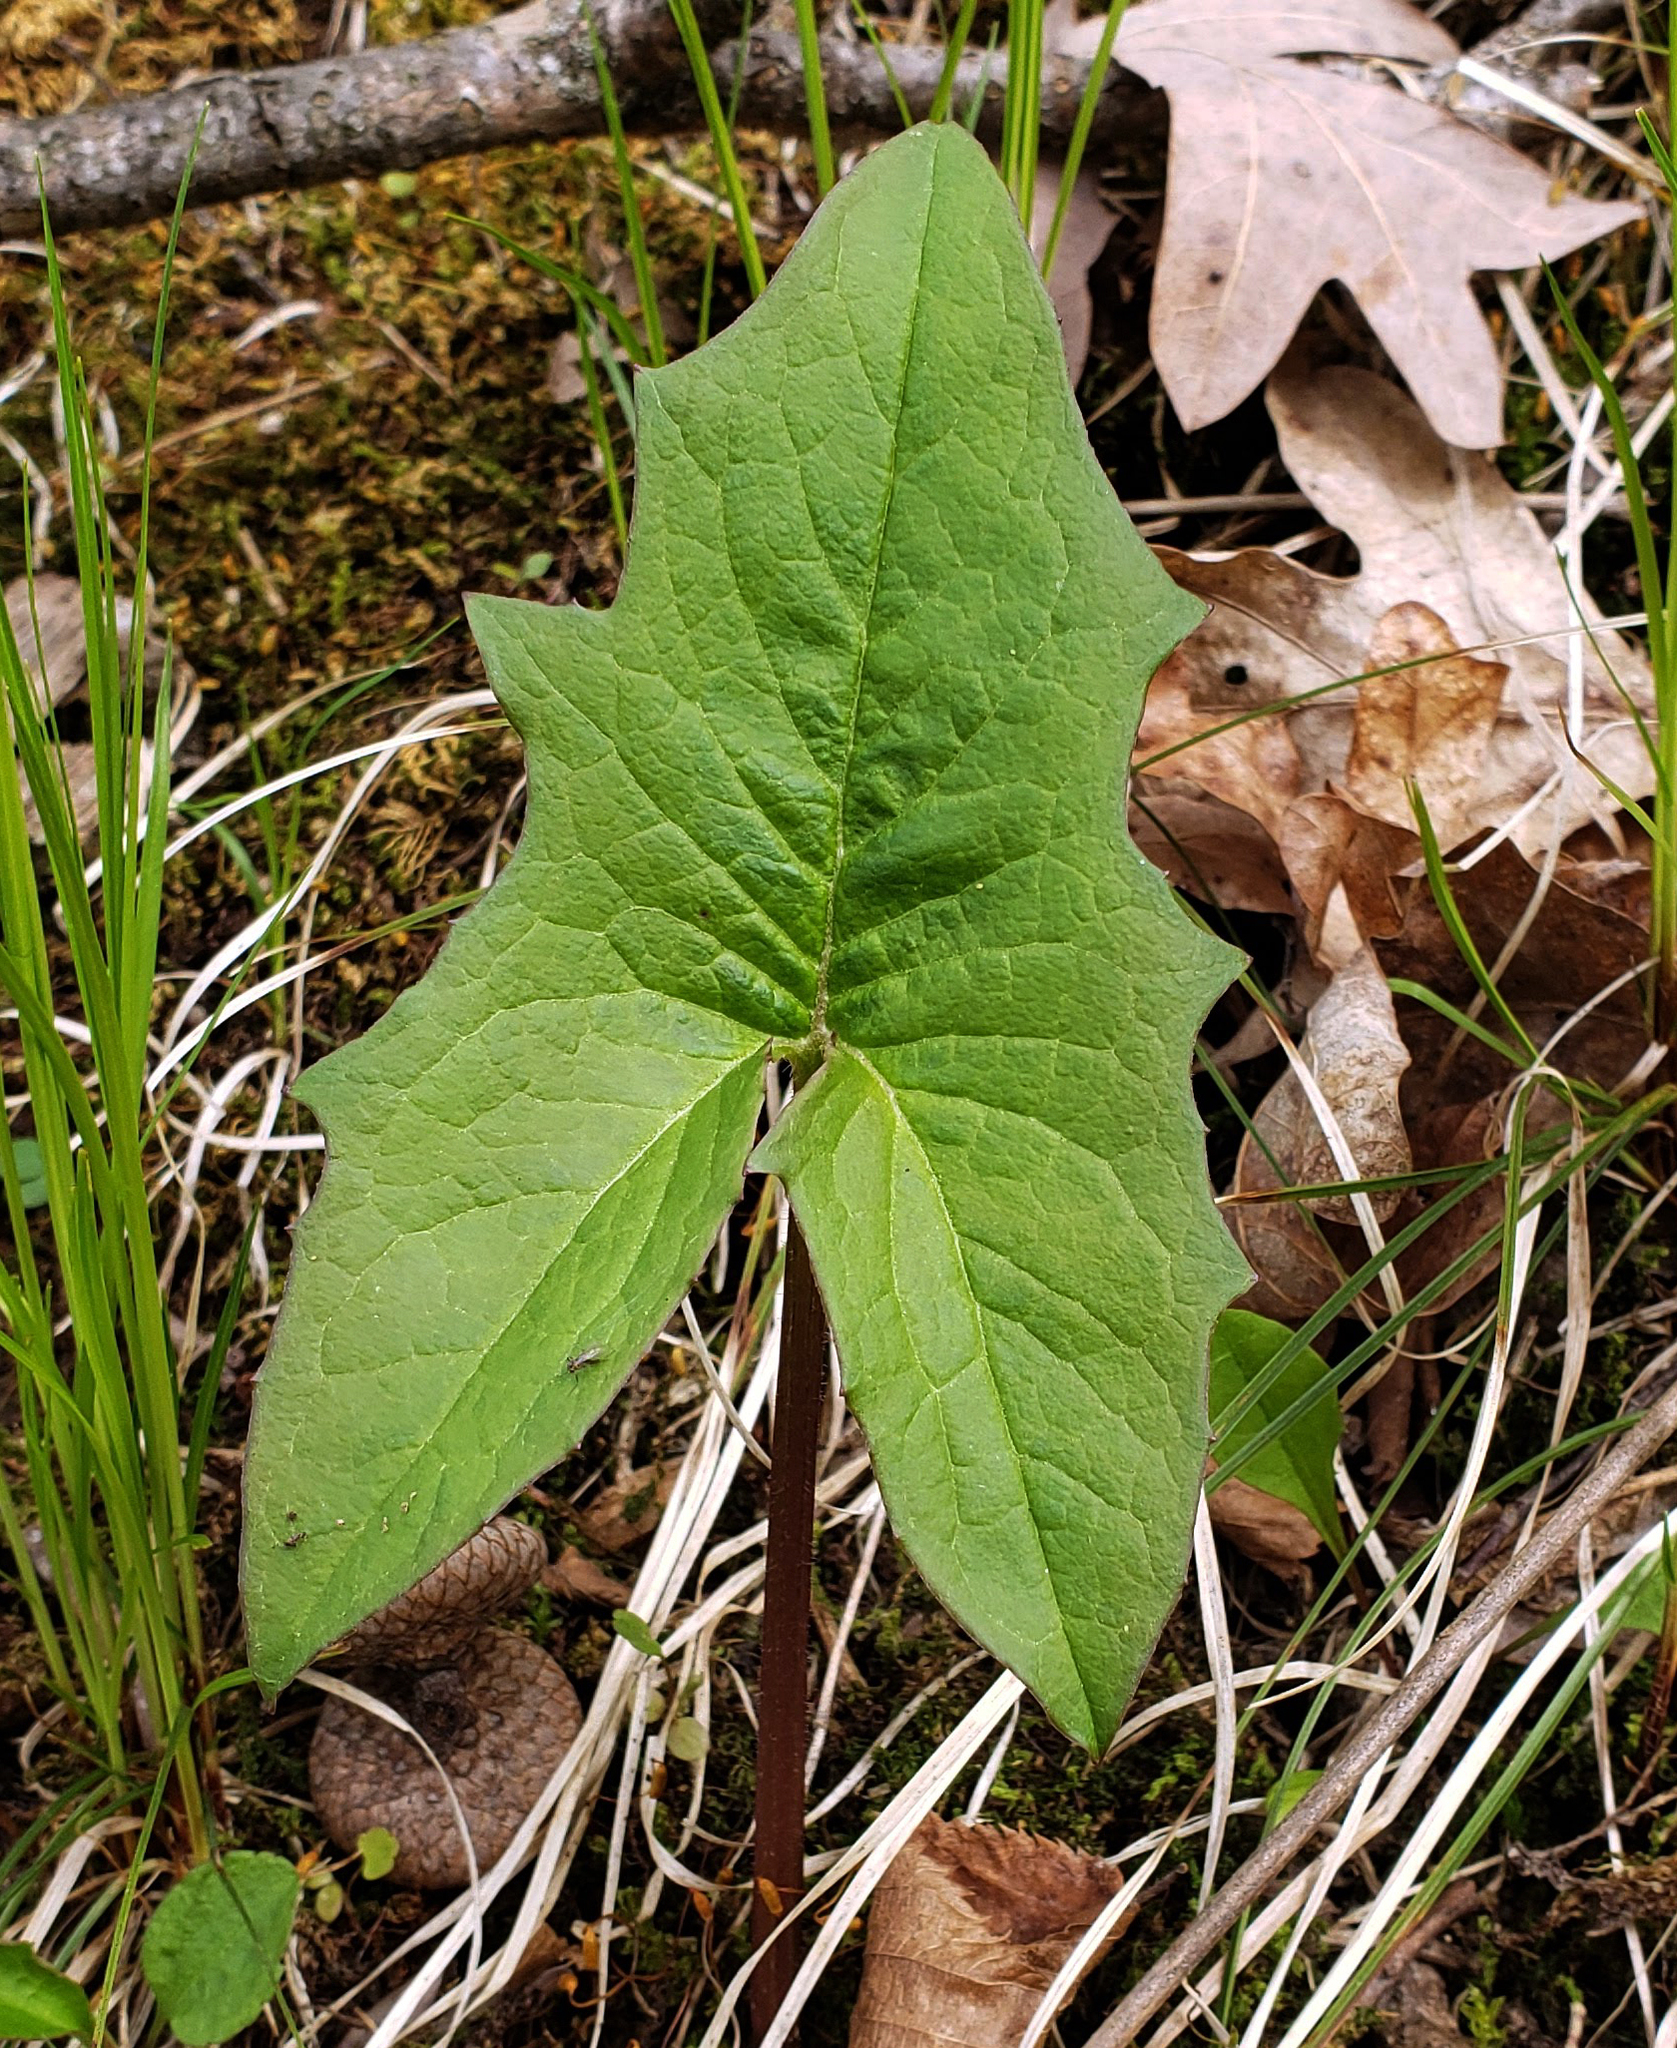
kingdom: Plantae
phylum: Tracheophyta
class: Magnoliopsida
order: Asterales
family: Asteraceae
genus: Nabalus
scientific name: Nabalus albus
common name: White rattlesnakeroot
